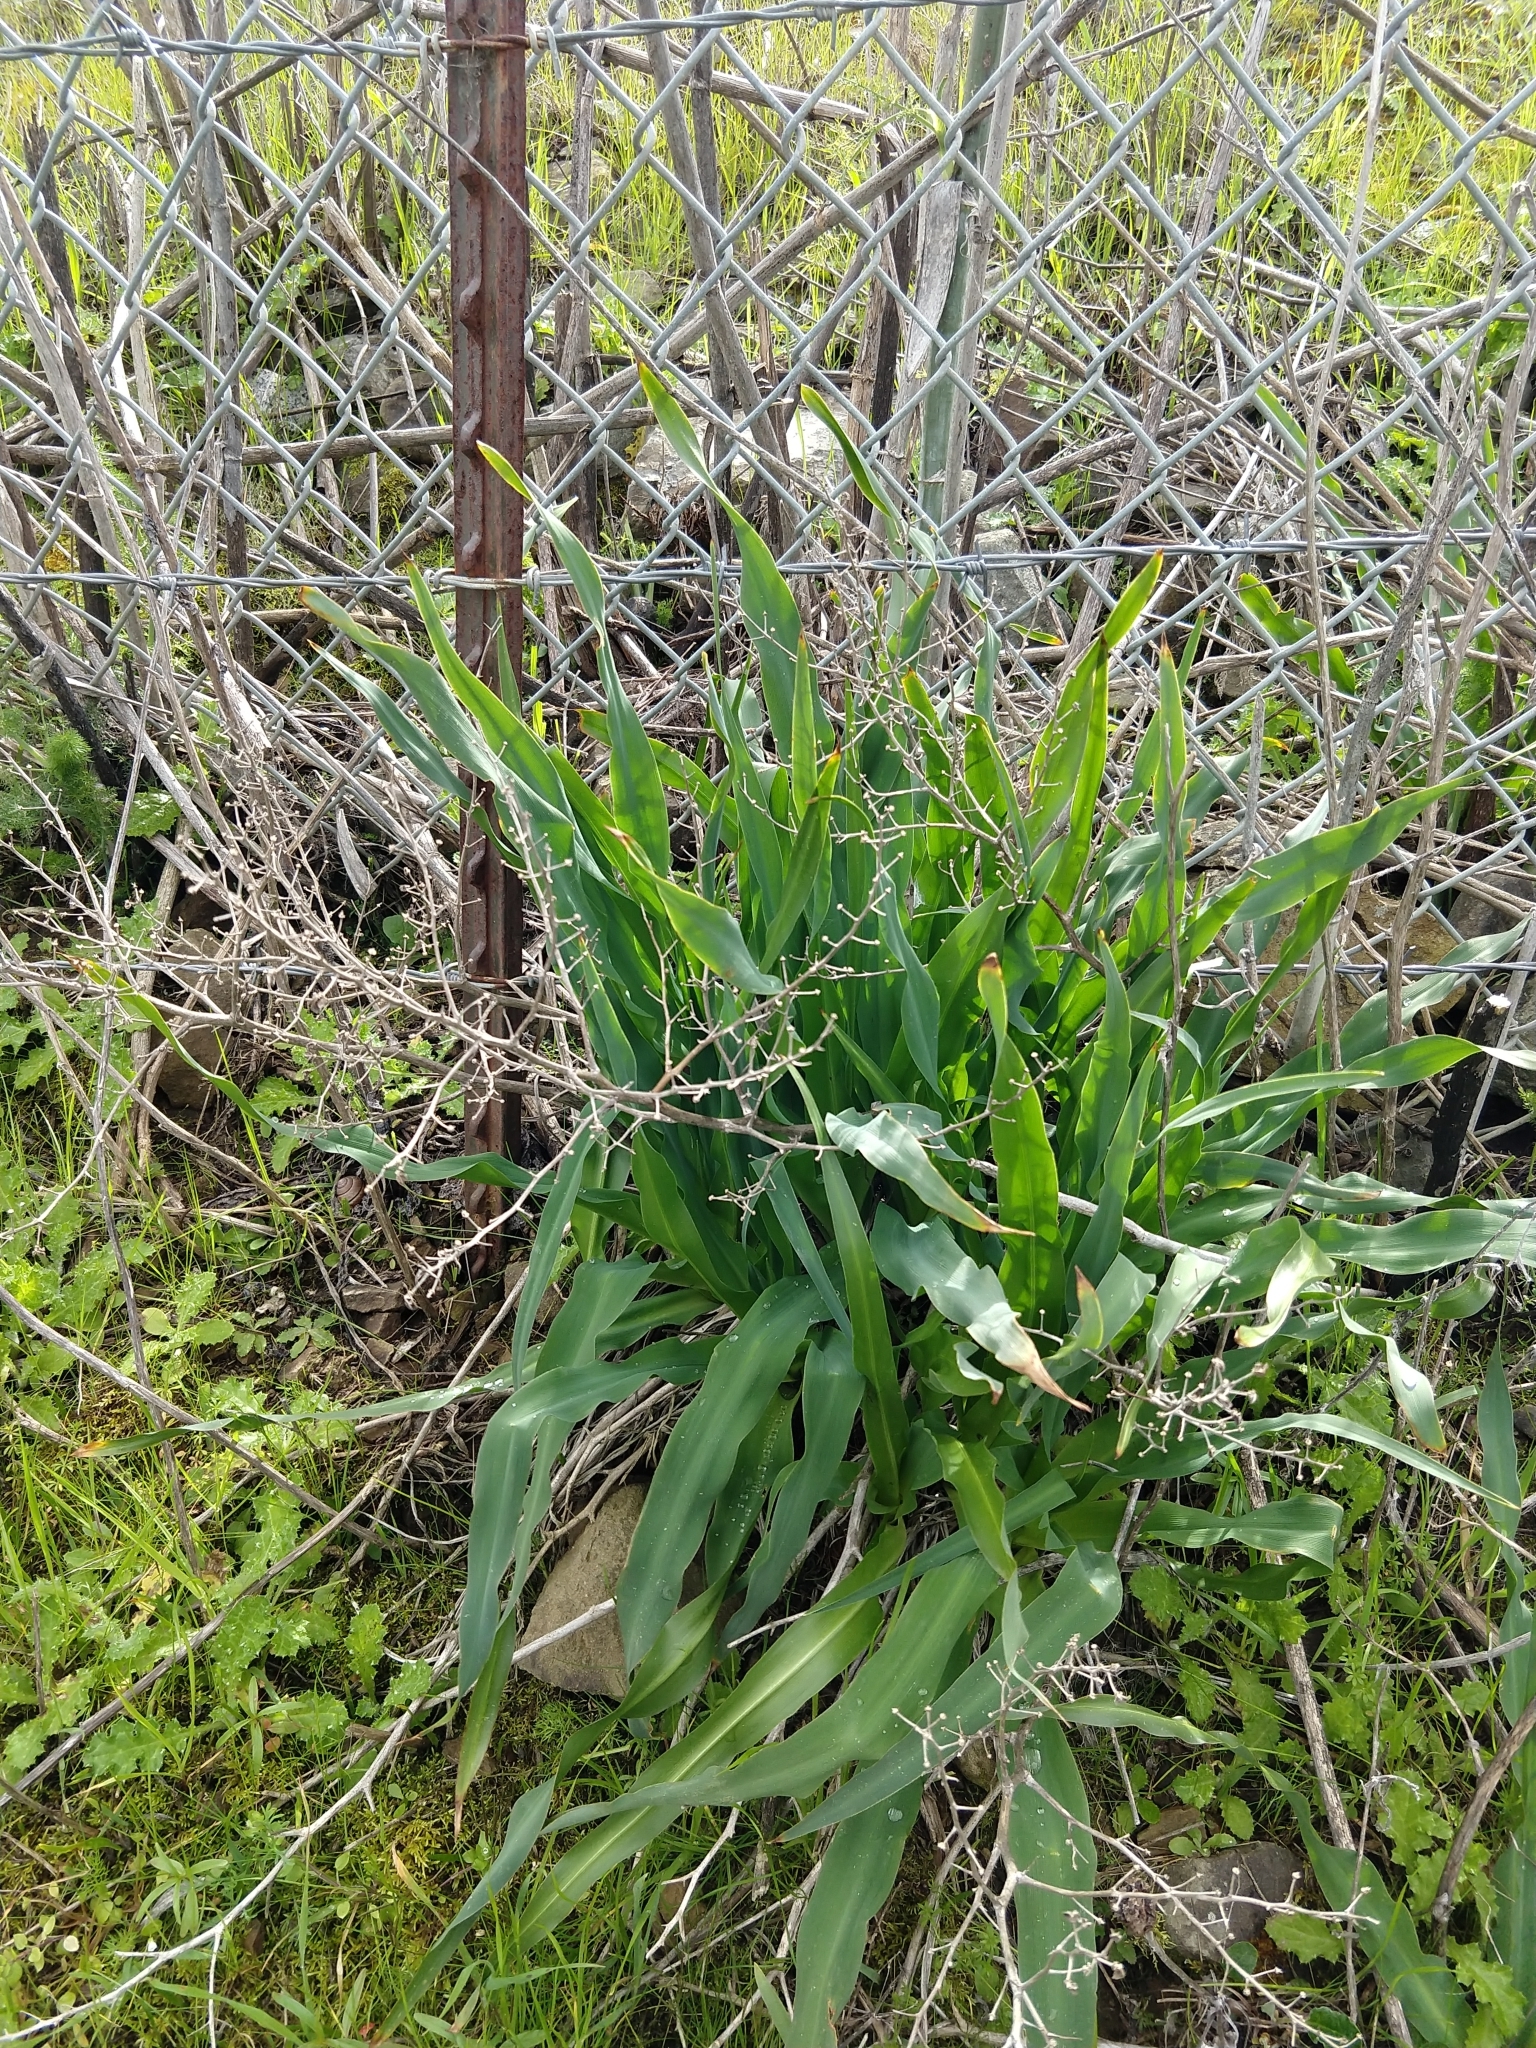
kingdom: Plantae
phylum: Tracheophyta
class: Liliopsida
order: Asparagales
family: Asparagaceae
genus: Chlorogalum
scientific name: Chlorogalum pomeridianum
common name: Amole
